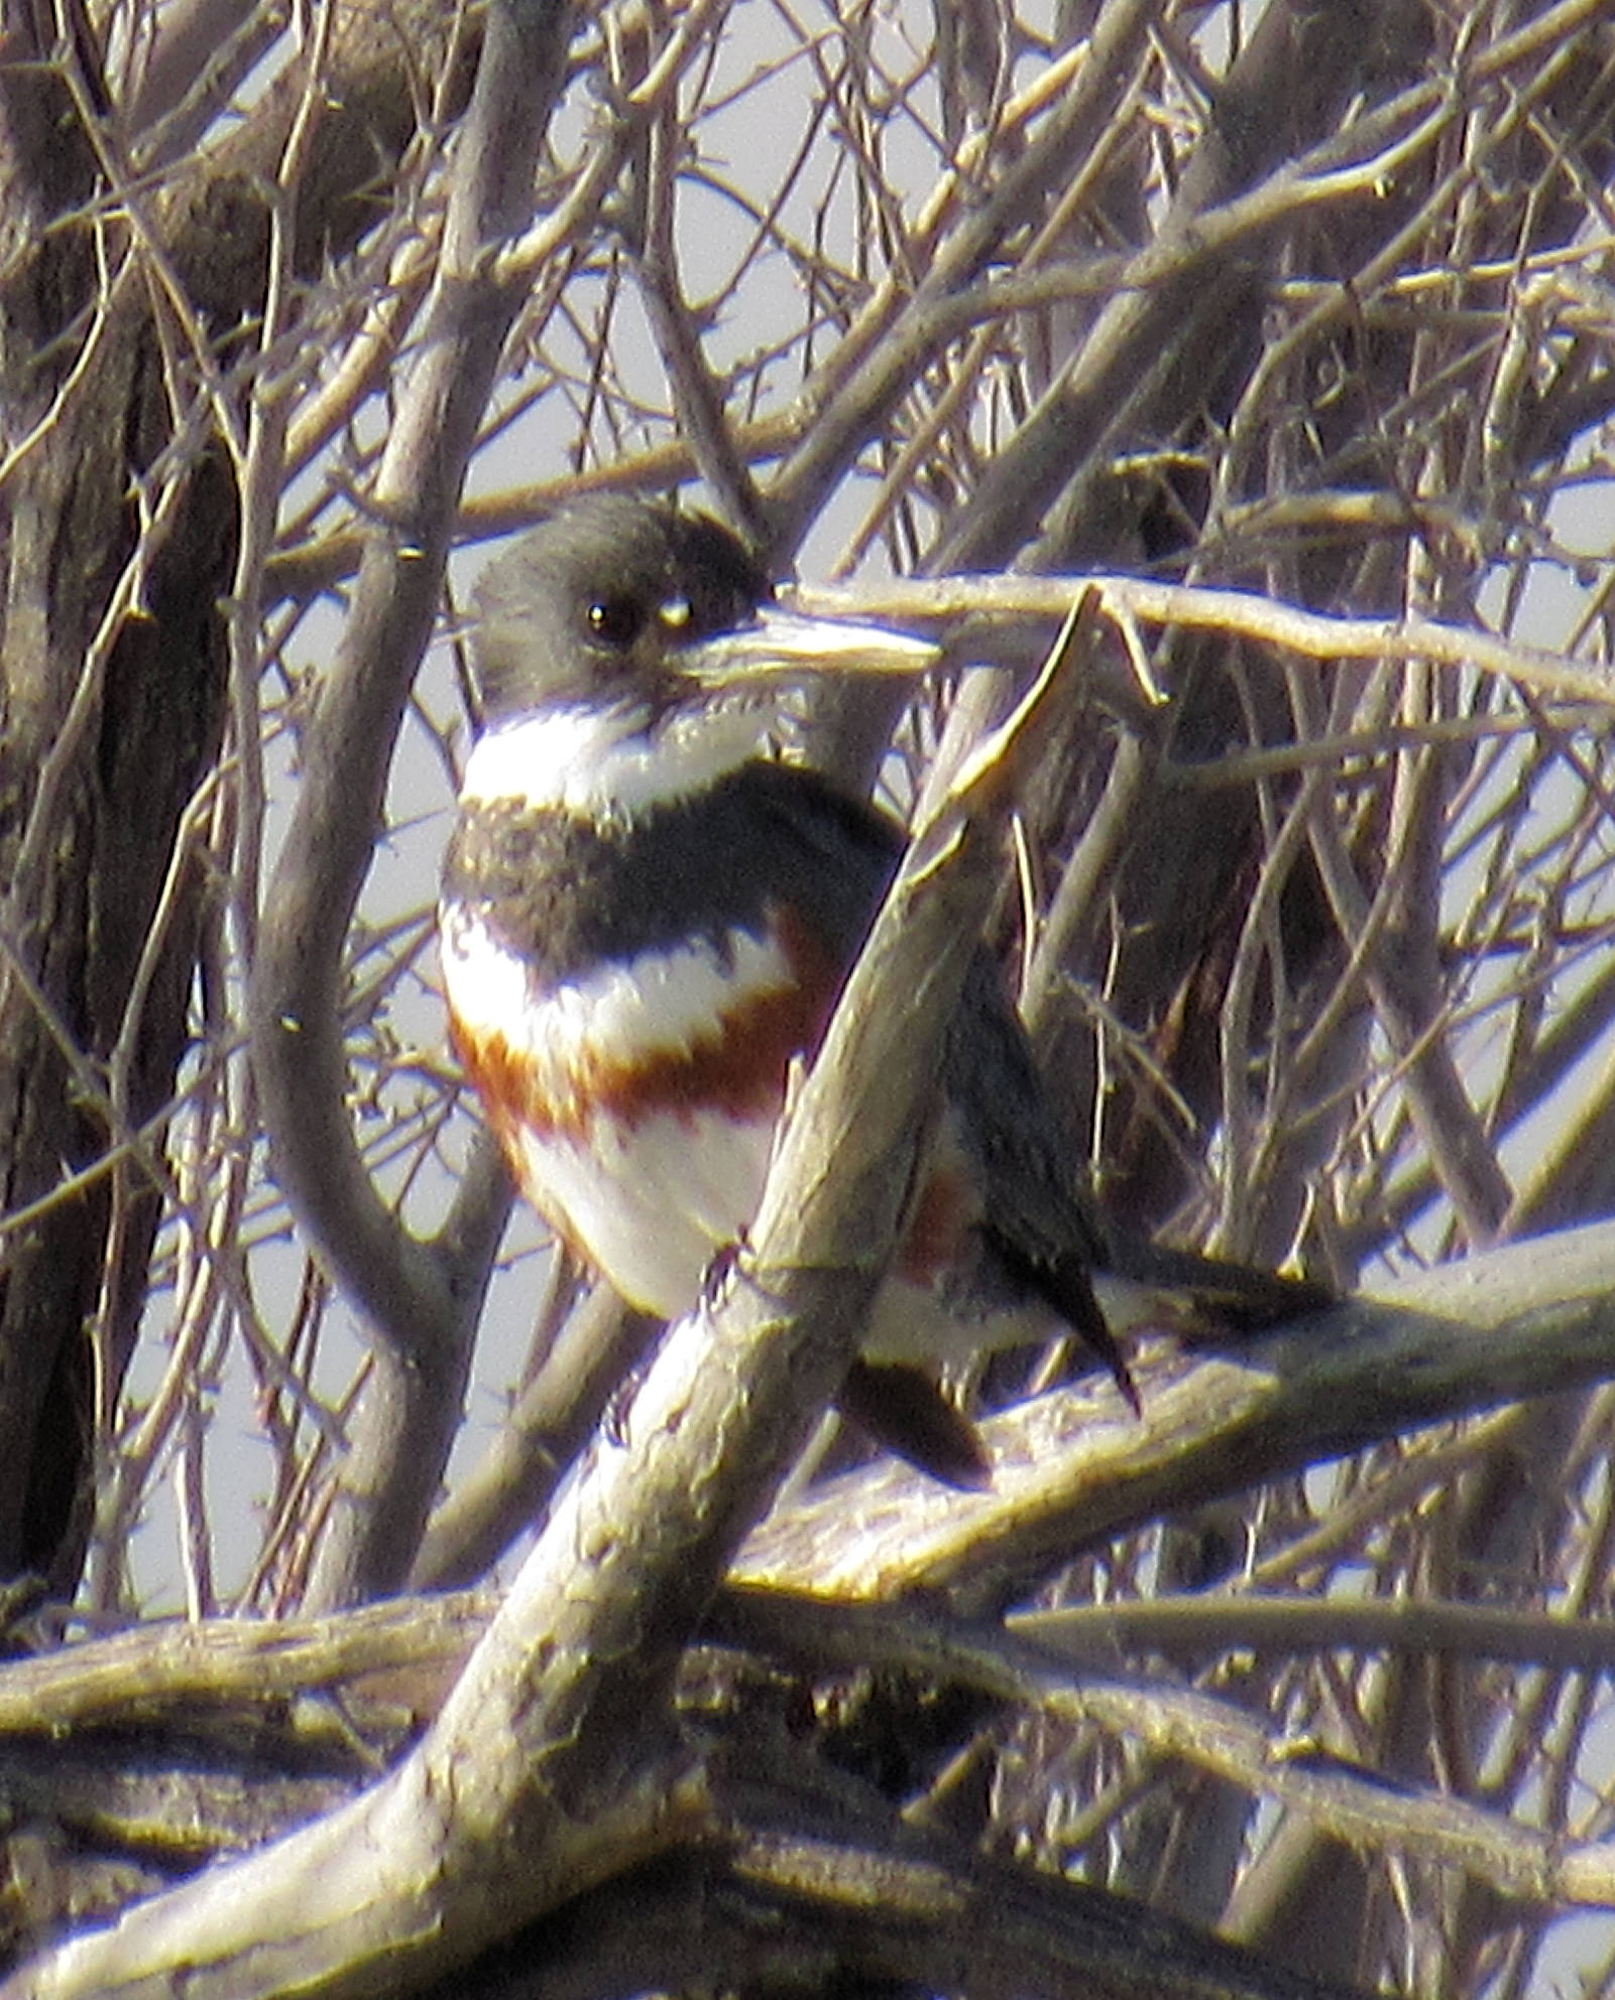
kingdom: Animalia
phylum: Chordata
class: Aves
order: Coraciiformes
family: Alcedinidae
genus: Megaceryle
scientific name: Megaceryle alcyon
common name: Belted kingfisher
